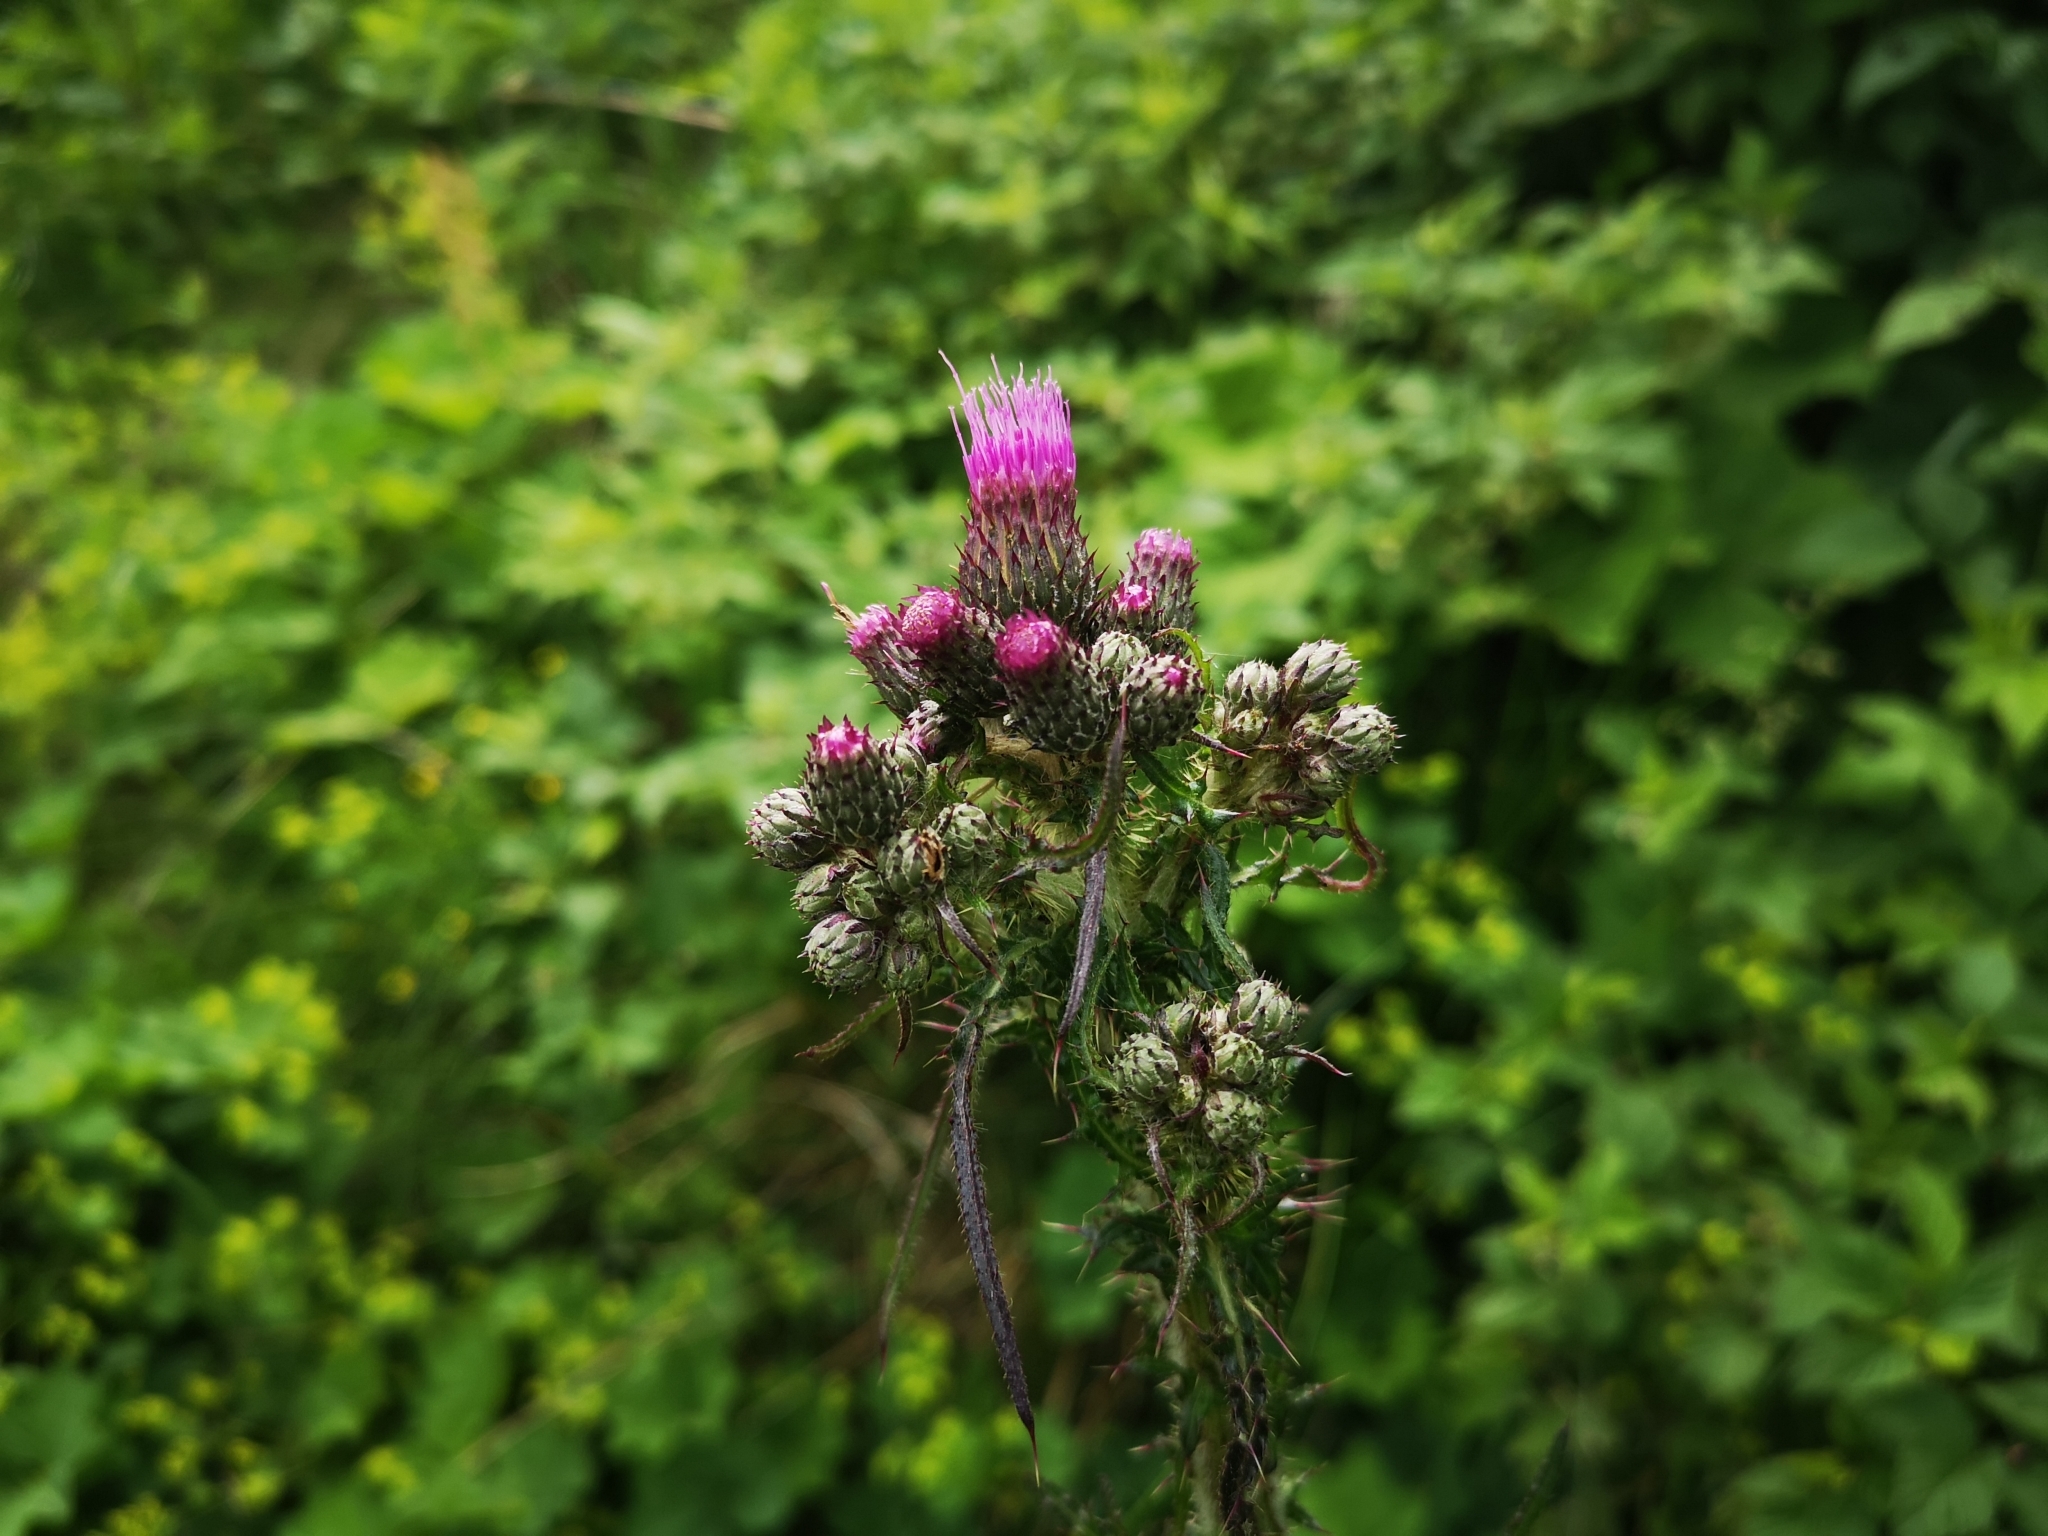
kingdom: Plantae
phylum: Tracheophyta
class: Magnoliopsida
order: Asterales
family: Asteraceae
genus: Cirsium
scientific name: Cirsium palustre
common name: Marsh thistle
